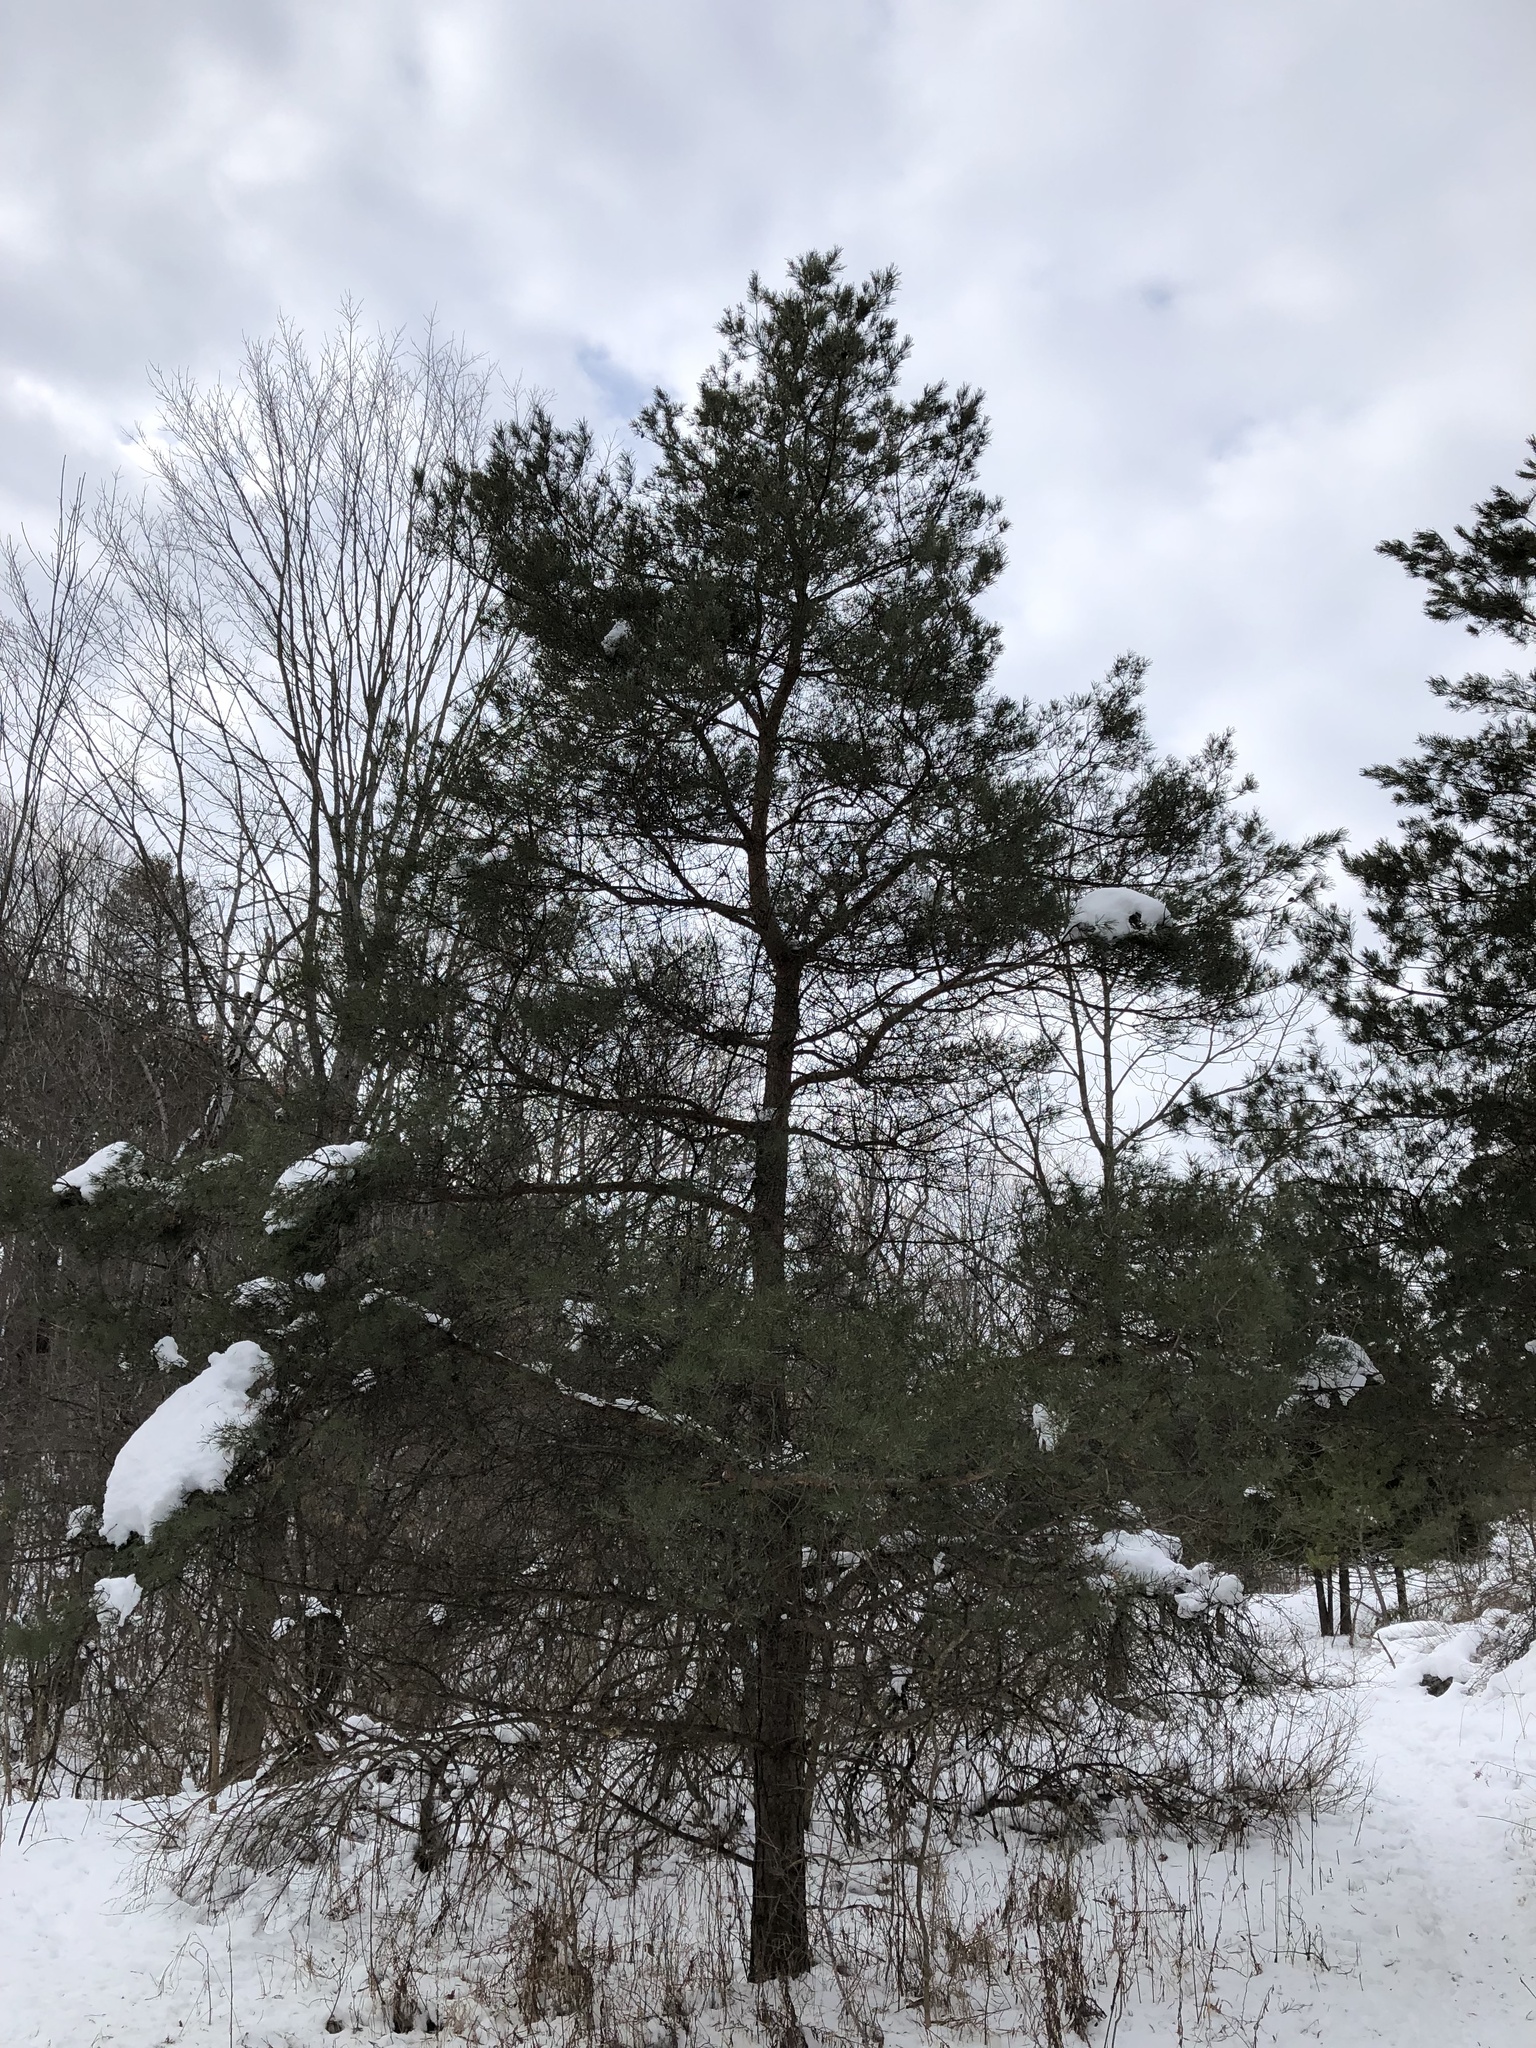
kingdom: Plantae
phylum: Tracheophyta
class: Pinopsida
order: Pinales
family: Pinaceae
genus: Pinus
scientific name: Pinus sylvestris
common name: Scots pine
